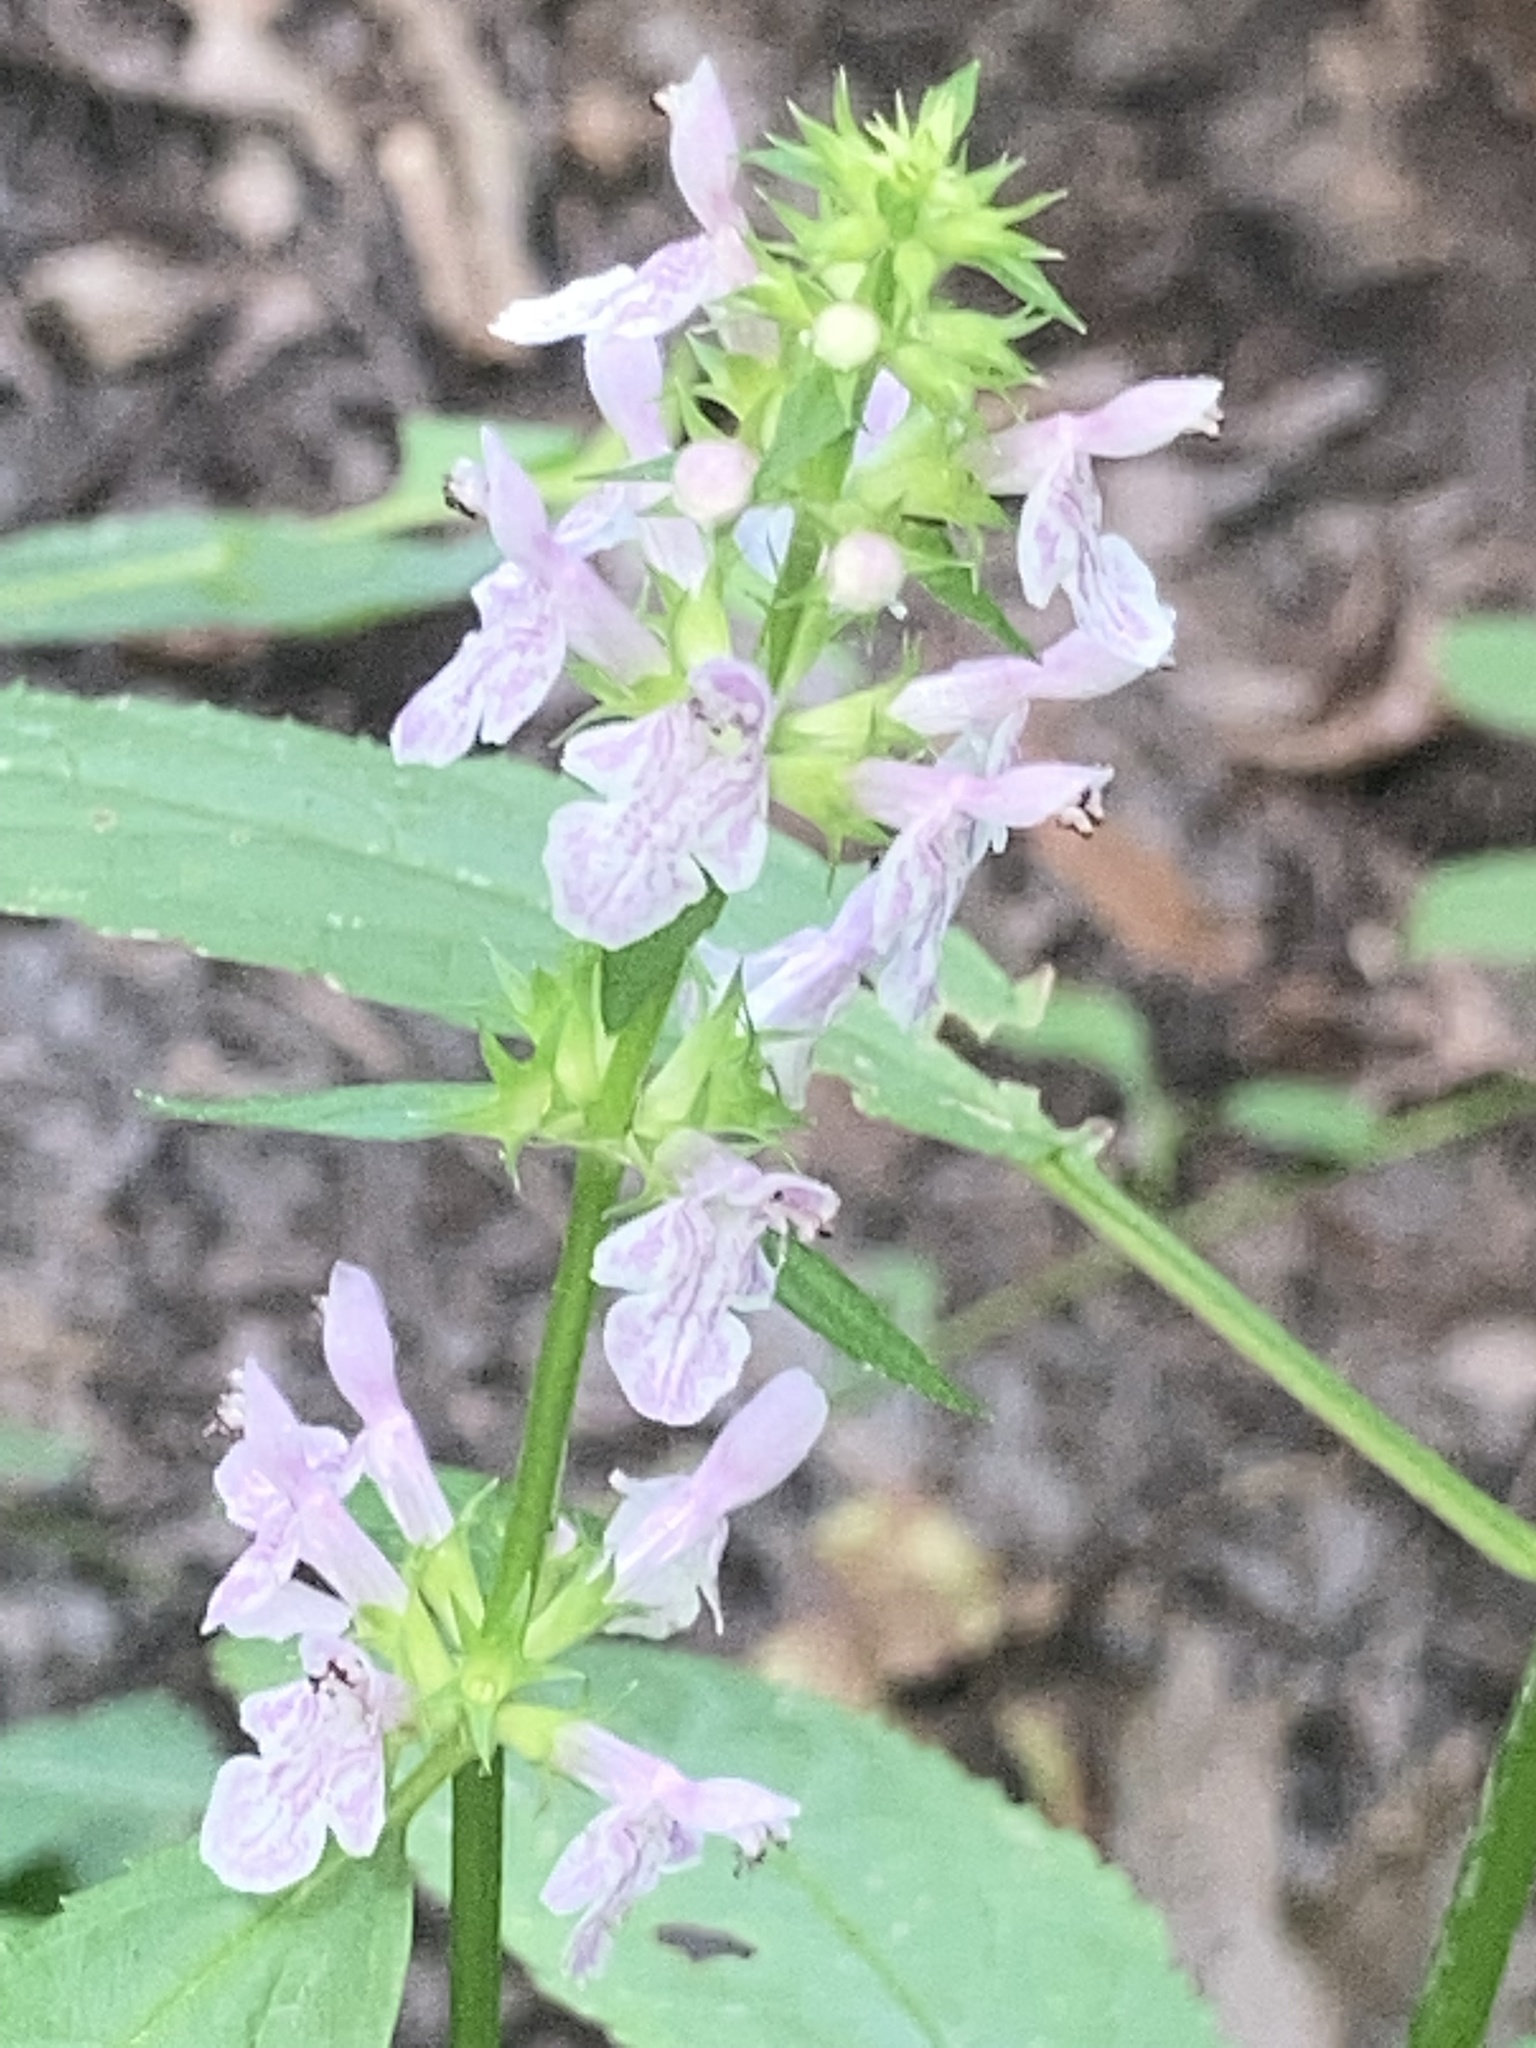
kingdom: Plantae
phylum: Tracheophyta
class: Magnoliopsida
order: Lamiales
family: Lamiaceae
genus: Stachys
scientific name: Stachys tenuifolia
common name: Smooth hedge-nettle
